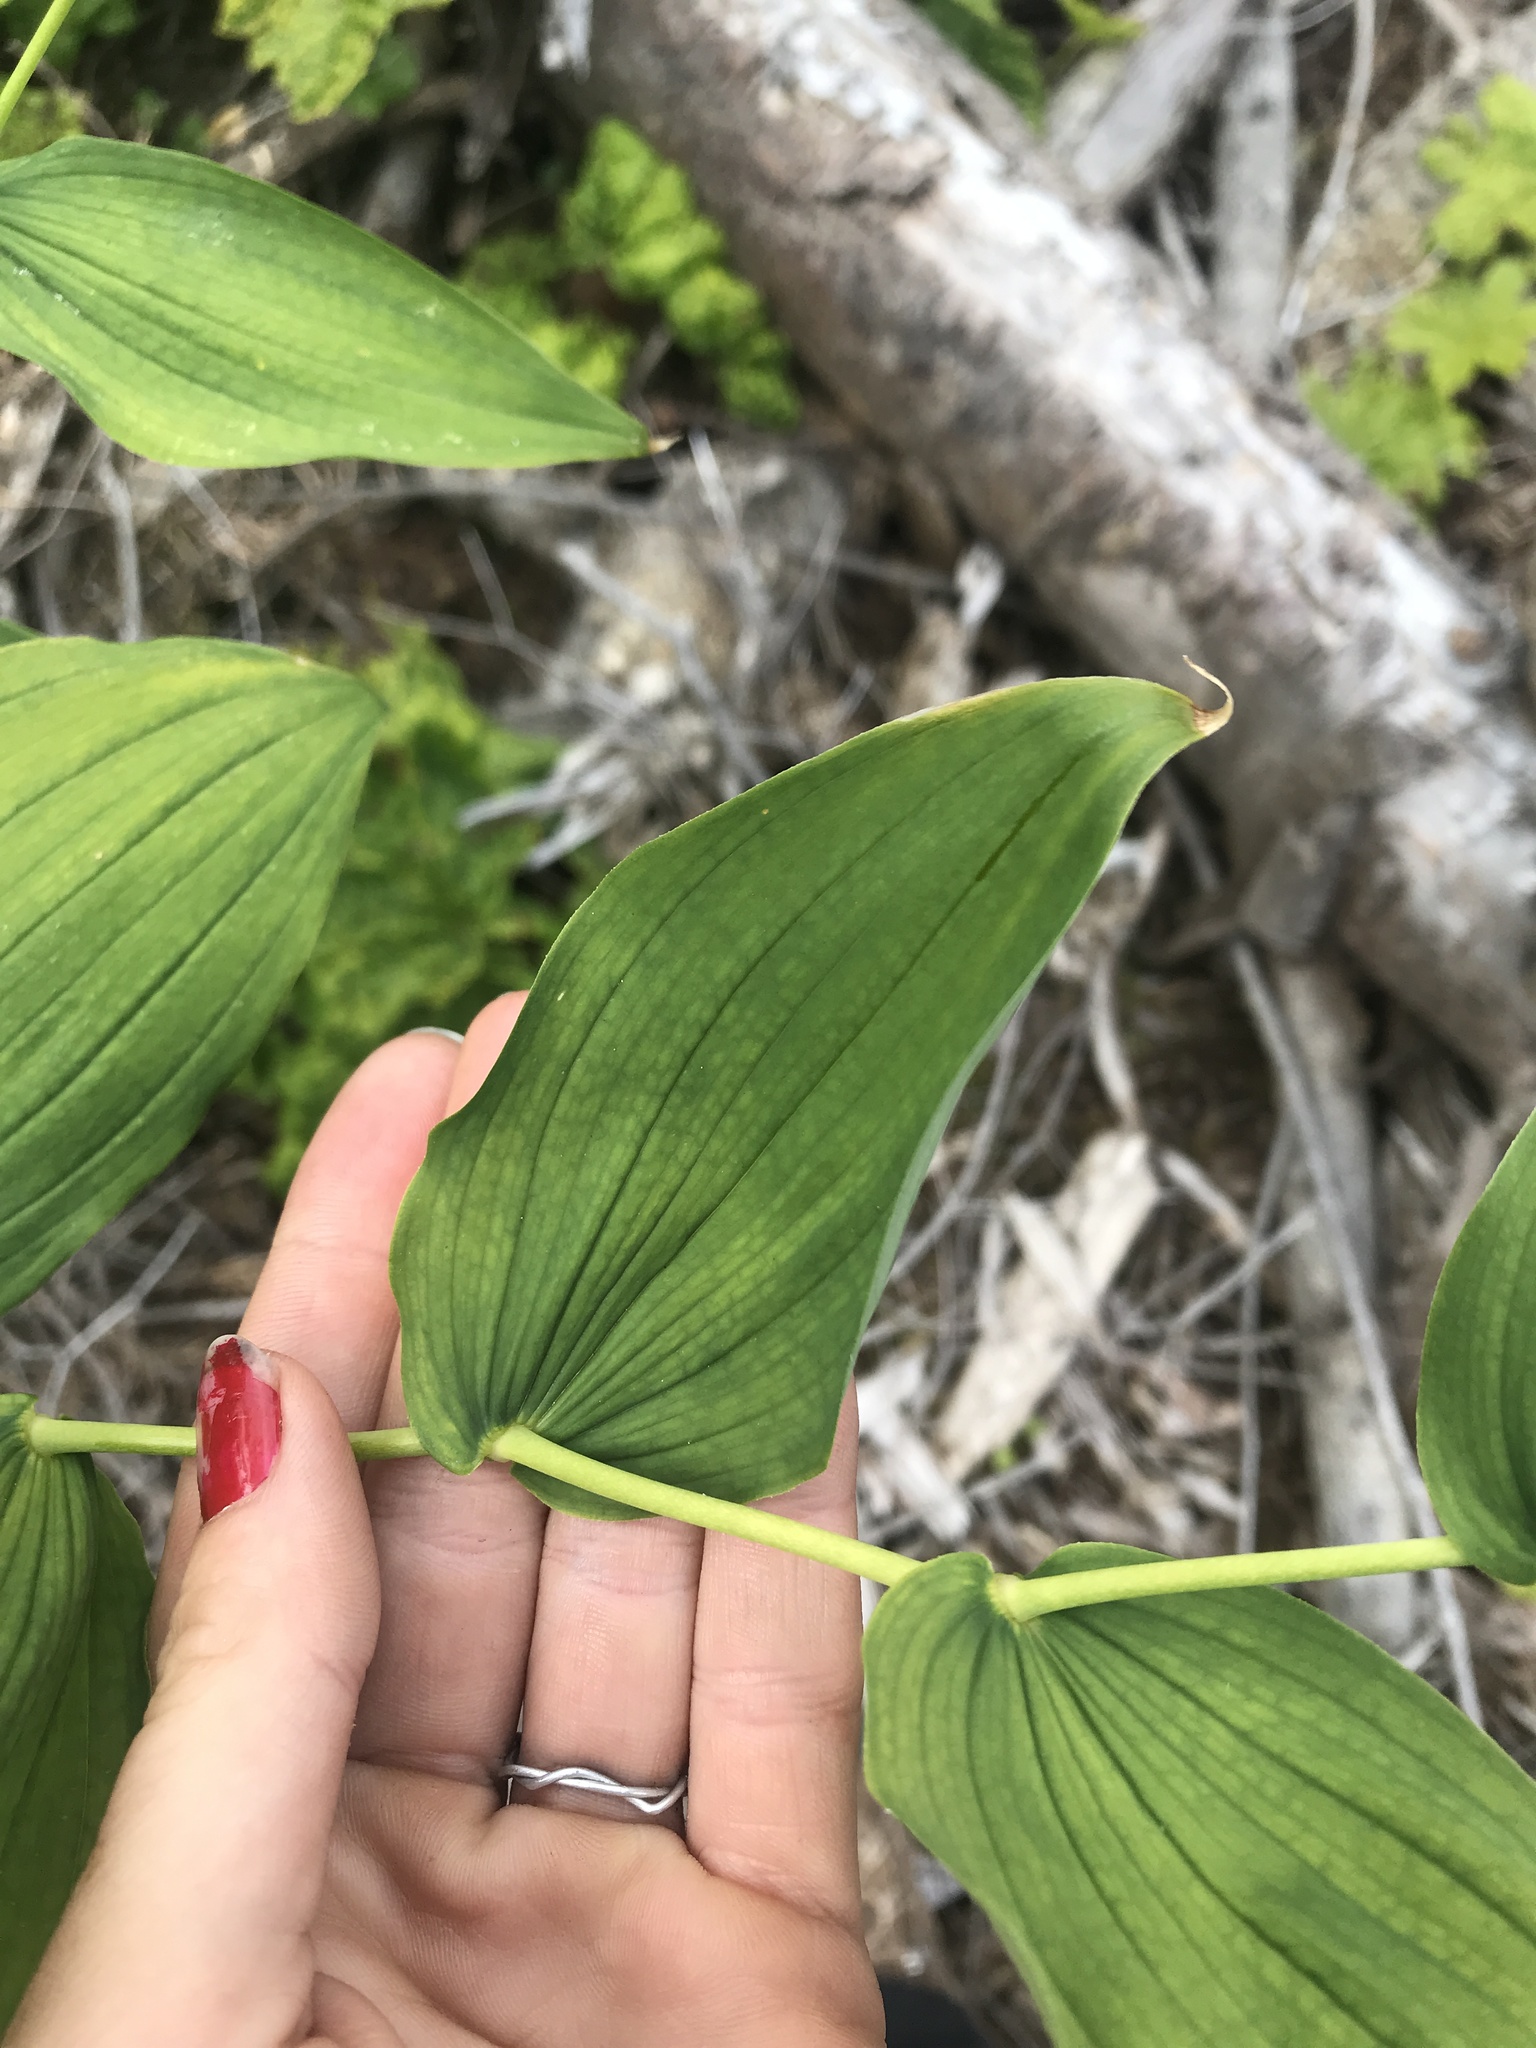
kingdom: Plantae
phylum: Tracheophyta
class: Liliopsida
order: Liliales
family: Liliaceae
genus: Streptopus
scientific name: Streptopus amplexifolius
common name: Clasp twisted stalk
